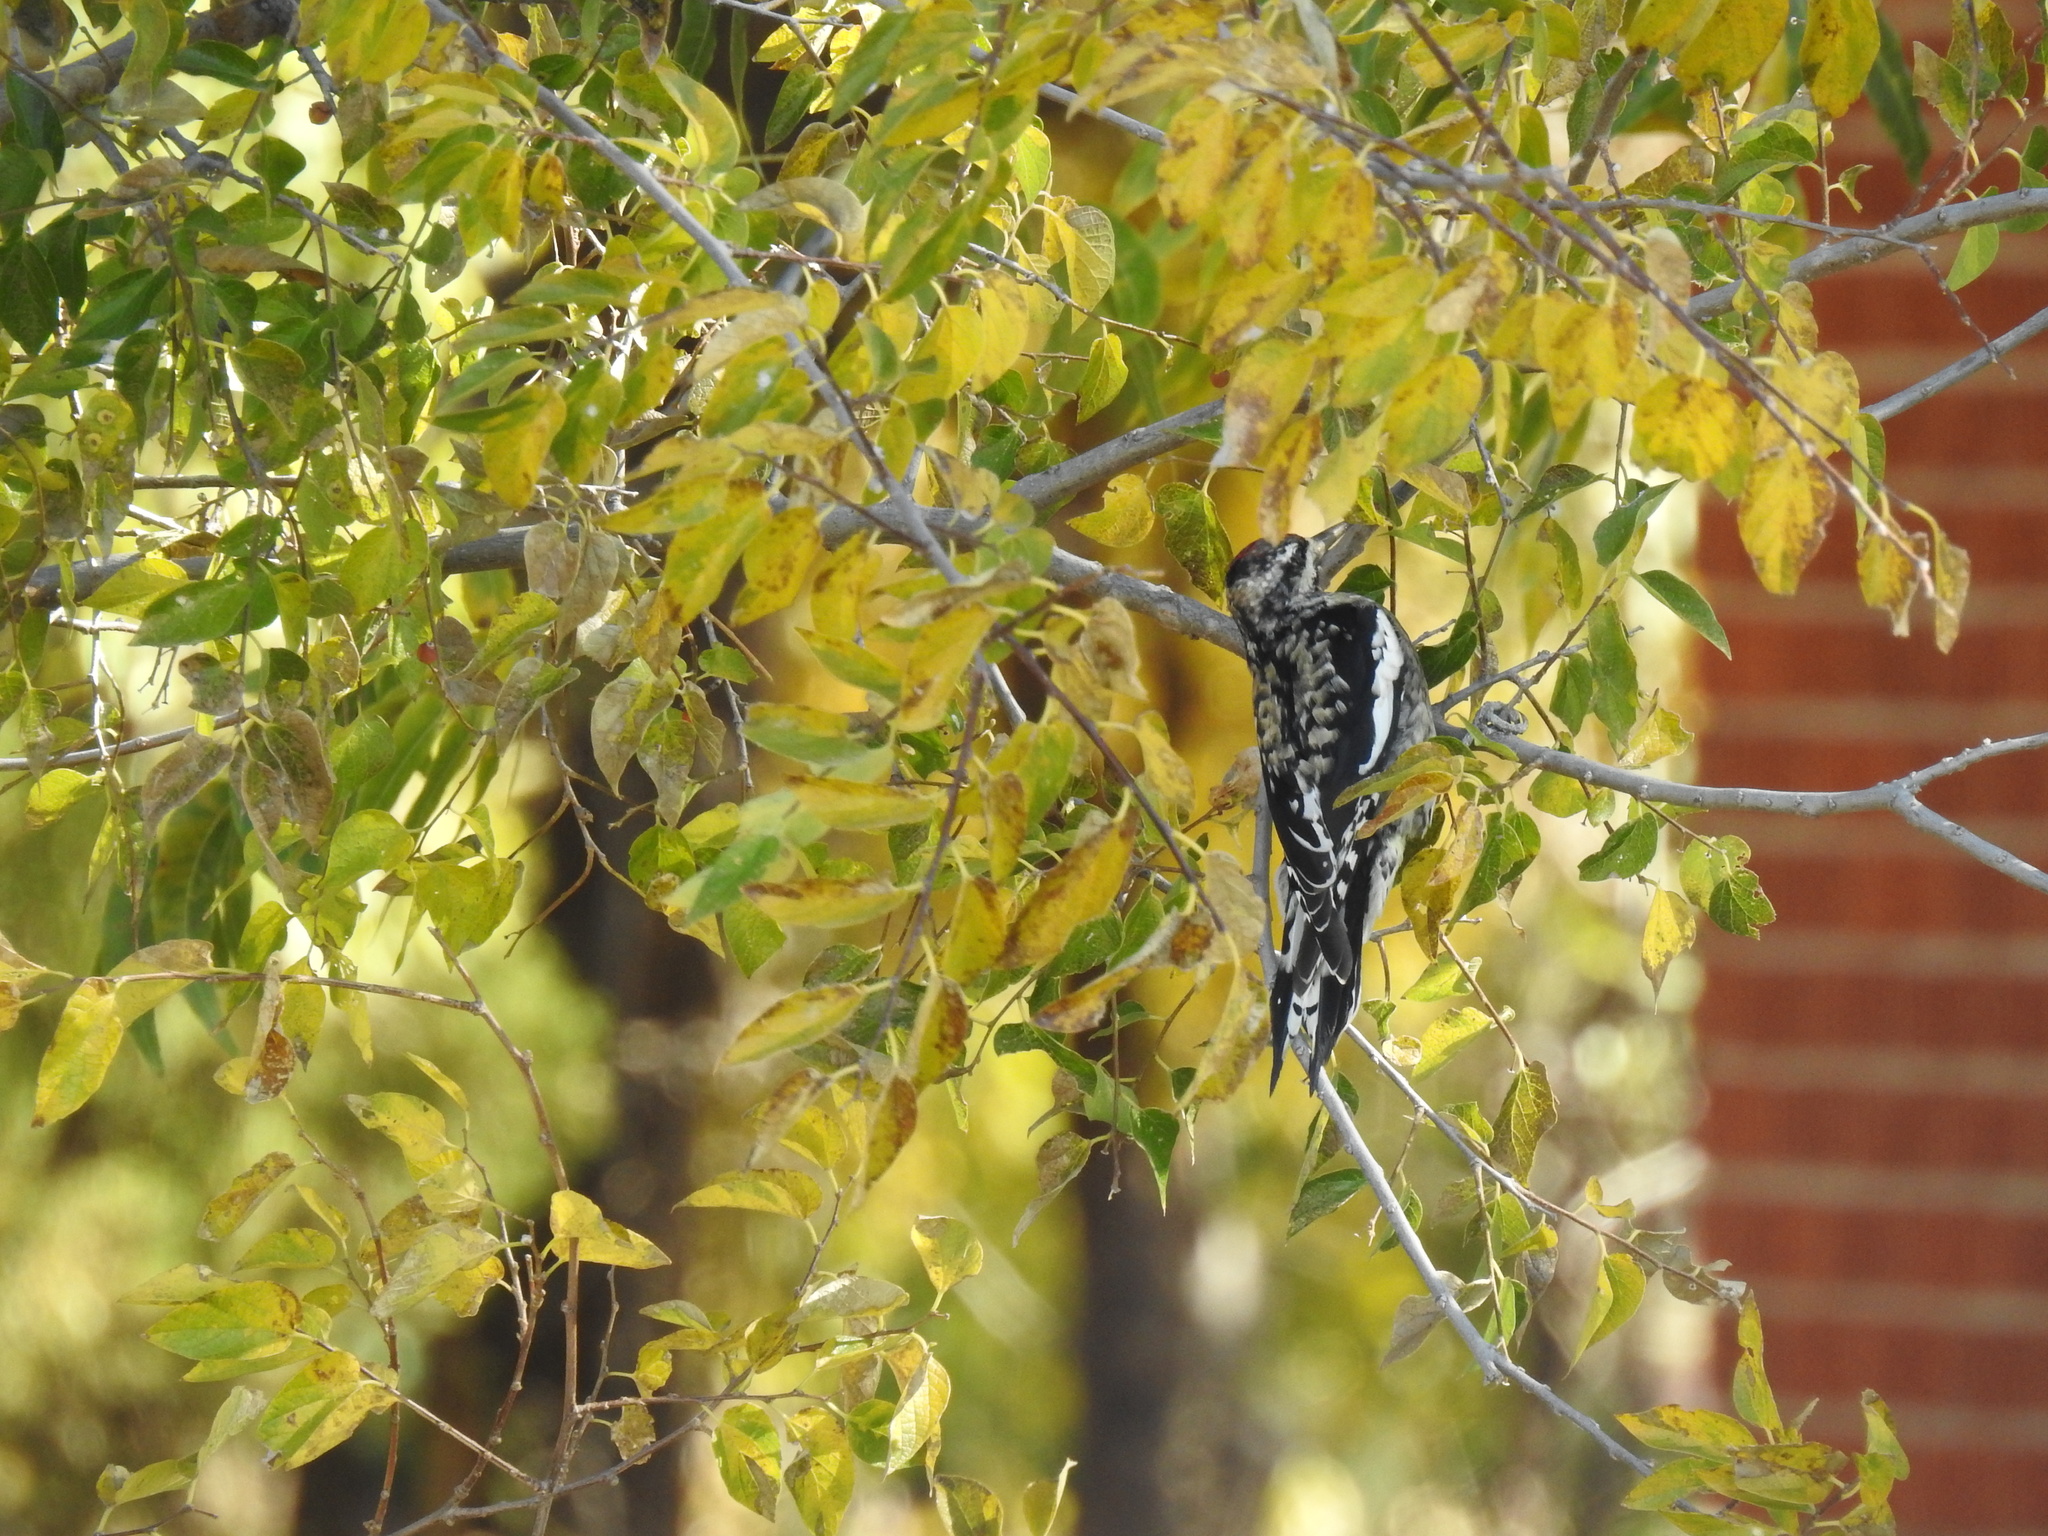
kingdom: Animalia
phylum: Chordata
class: Aves
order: Piciformes
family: Picidae
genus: Sphyrapicus
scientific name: Sphyrapicus varius
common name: Yellow-bellied sapsucker
